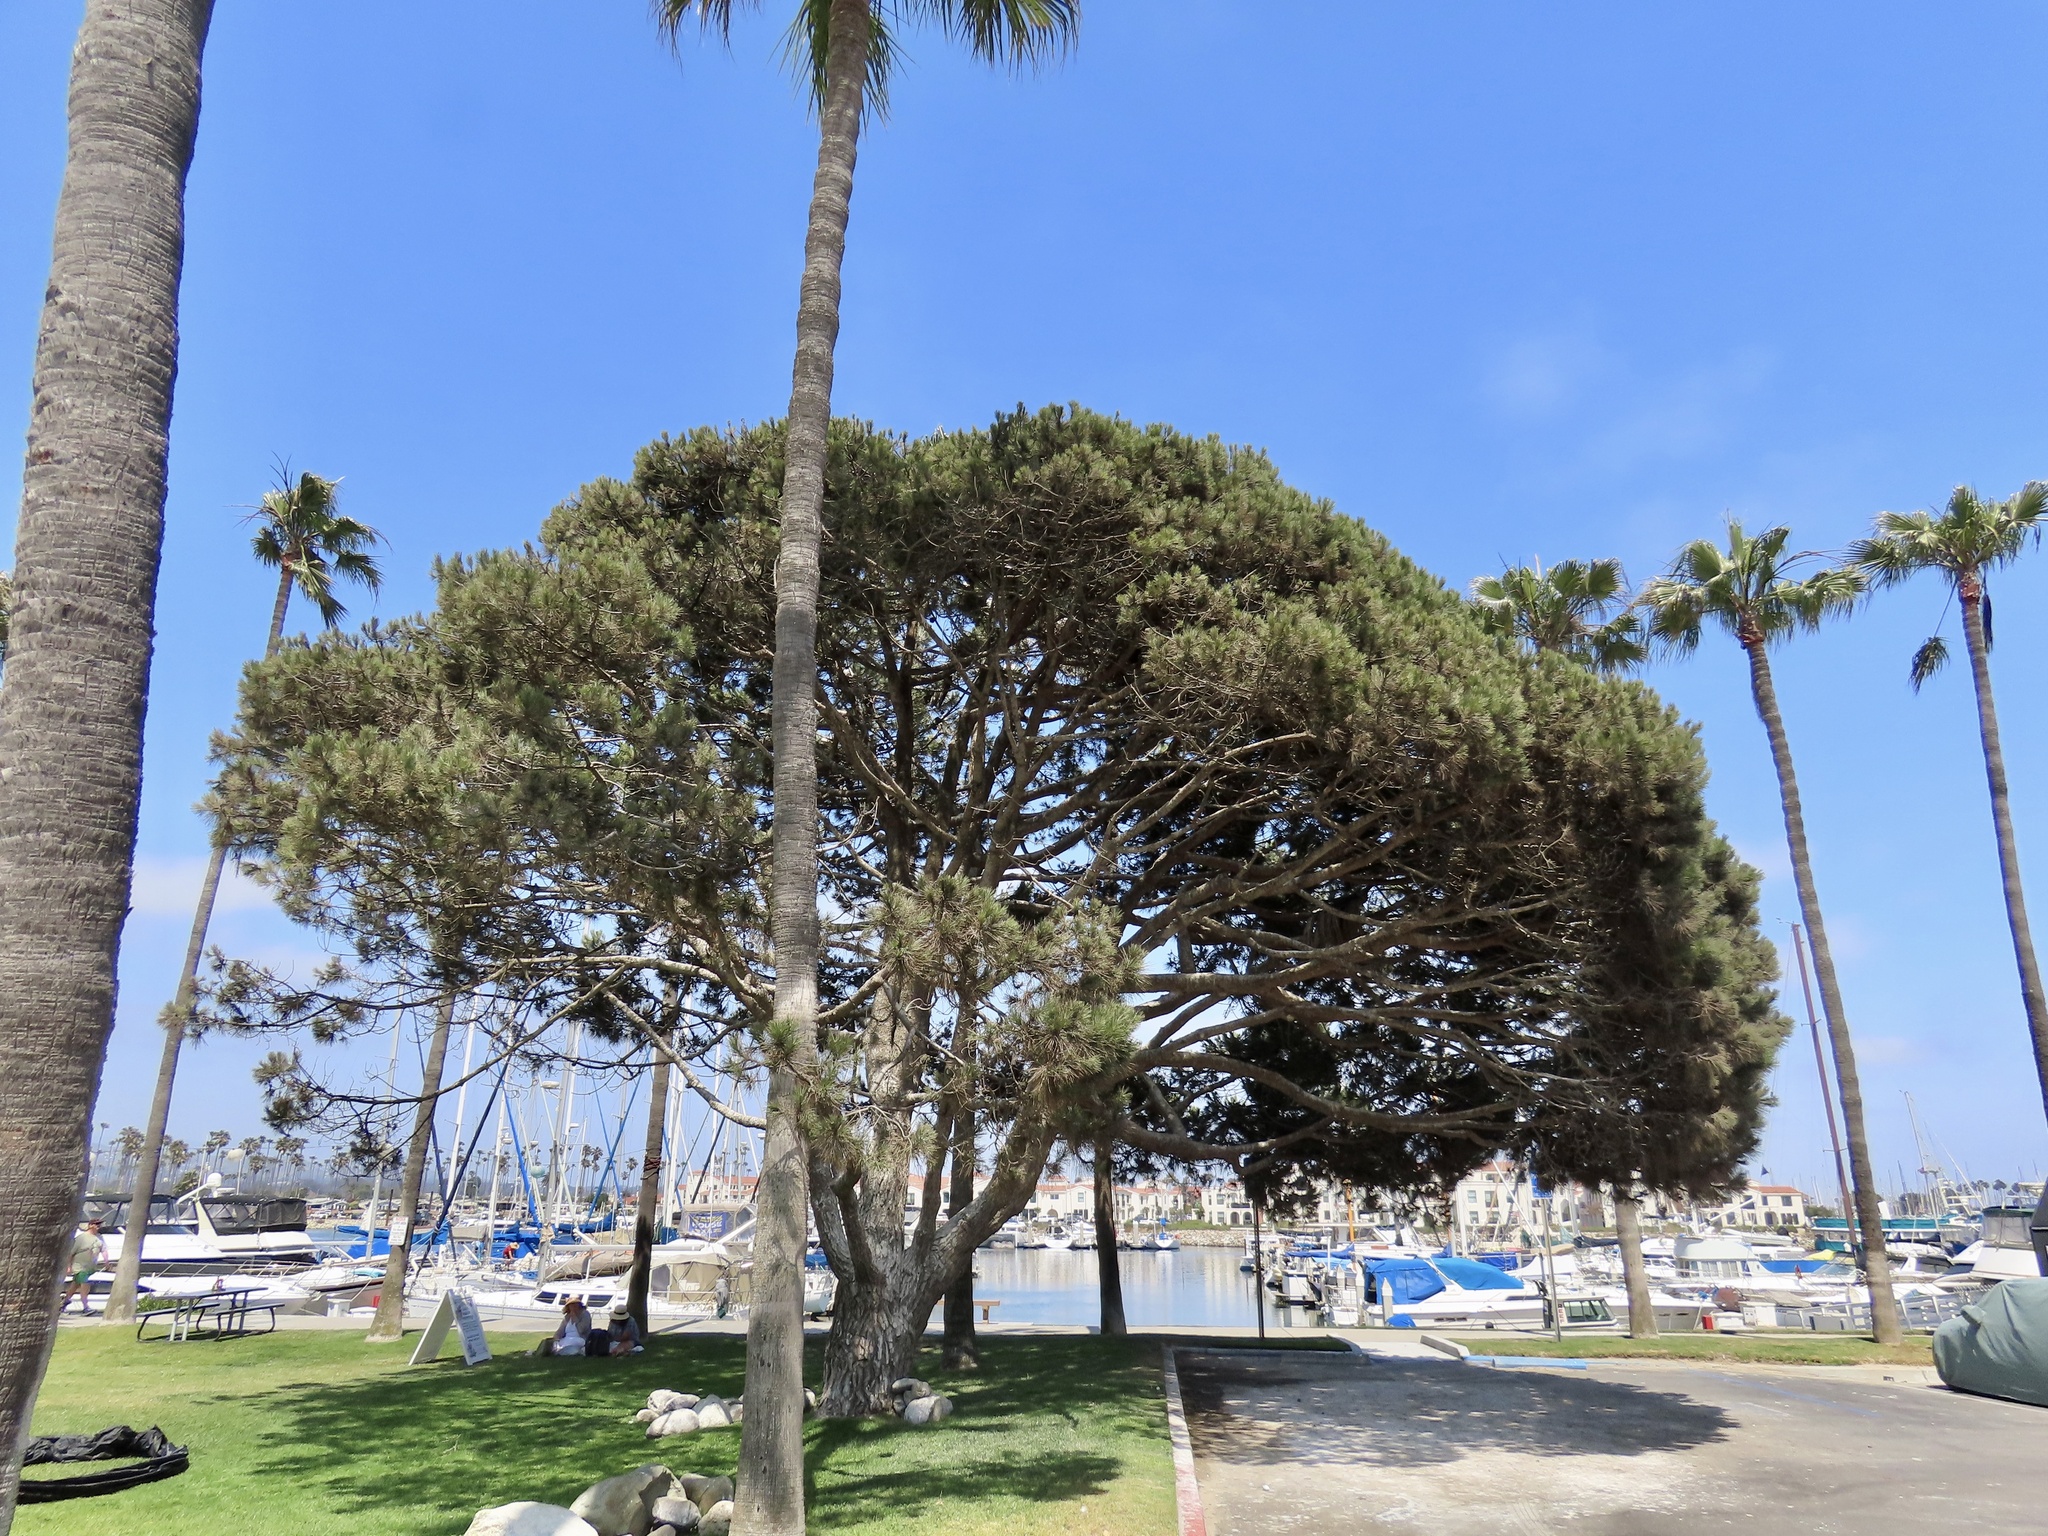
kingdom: Animalia
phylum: Chordata
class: Aves
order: Pelecaniformes
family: Ardeidae
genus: Egretta
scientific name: Egretta thula
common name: Snowy egret
